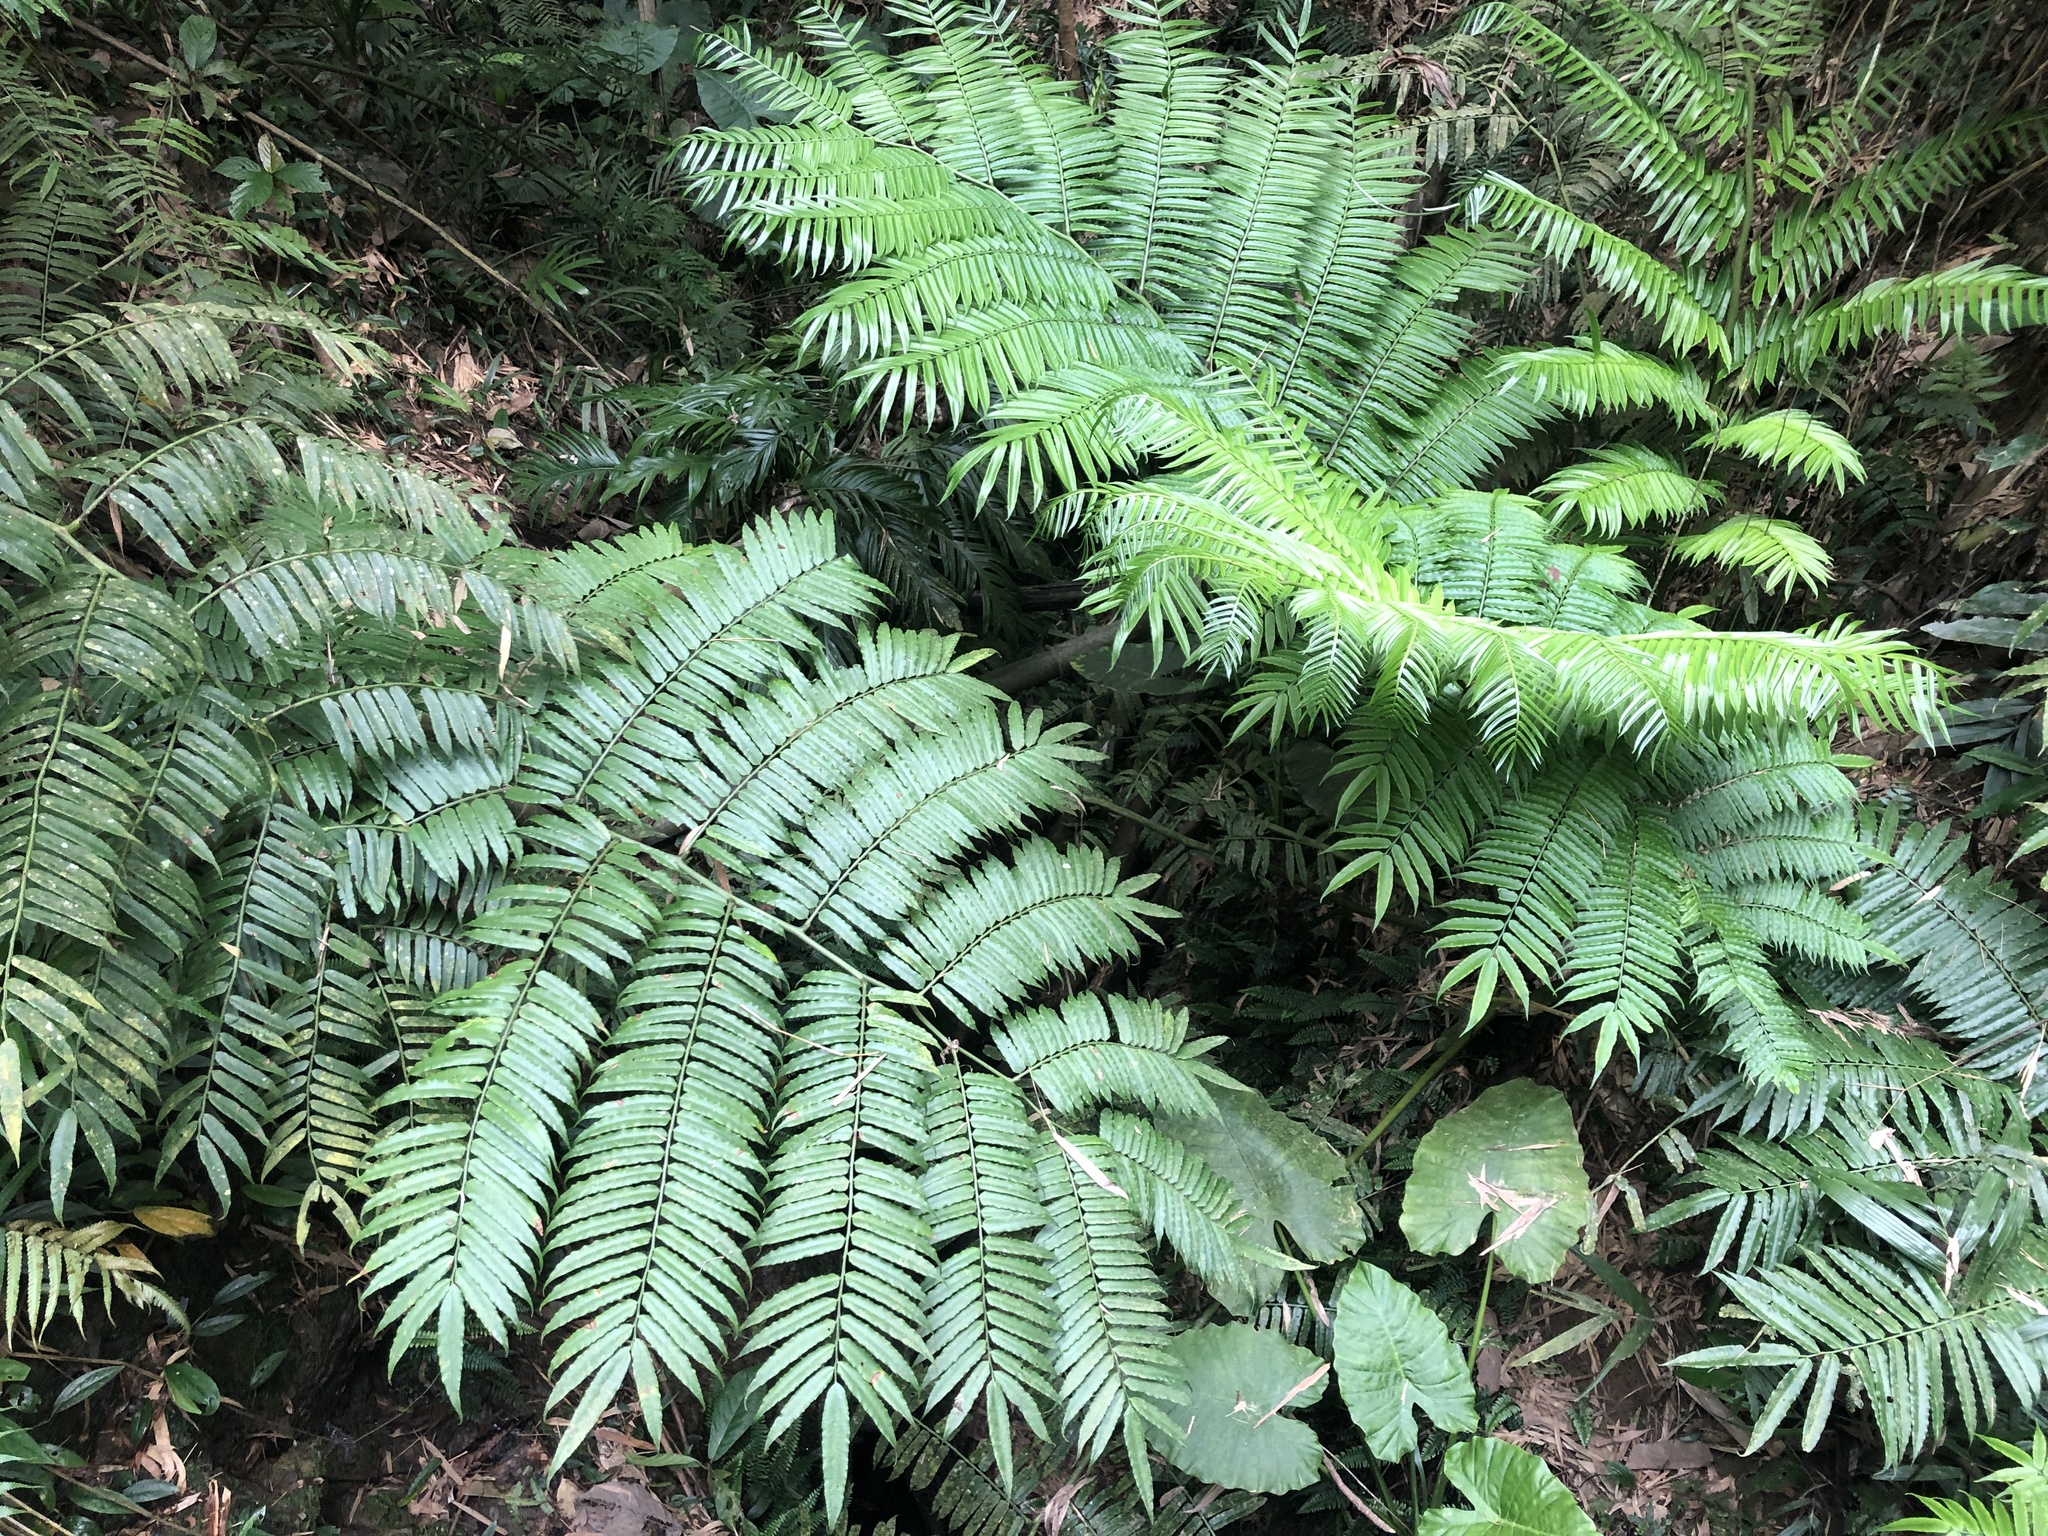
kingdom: Plantae
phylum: Tracheophyta
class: Polypodiopsida
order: Marattiales
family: Marattiaceae
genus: Angiopteris
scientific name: Angiopteris lygodiifolia
